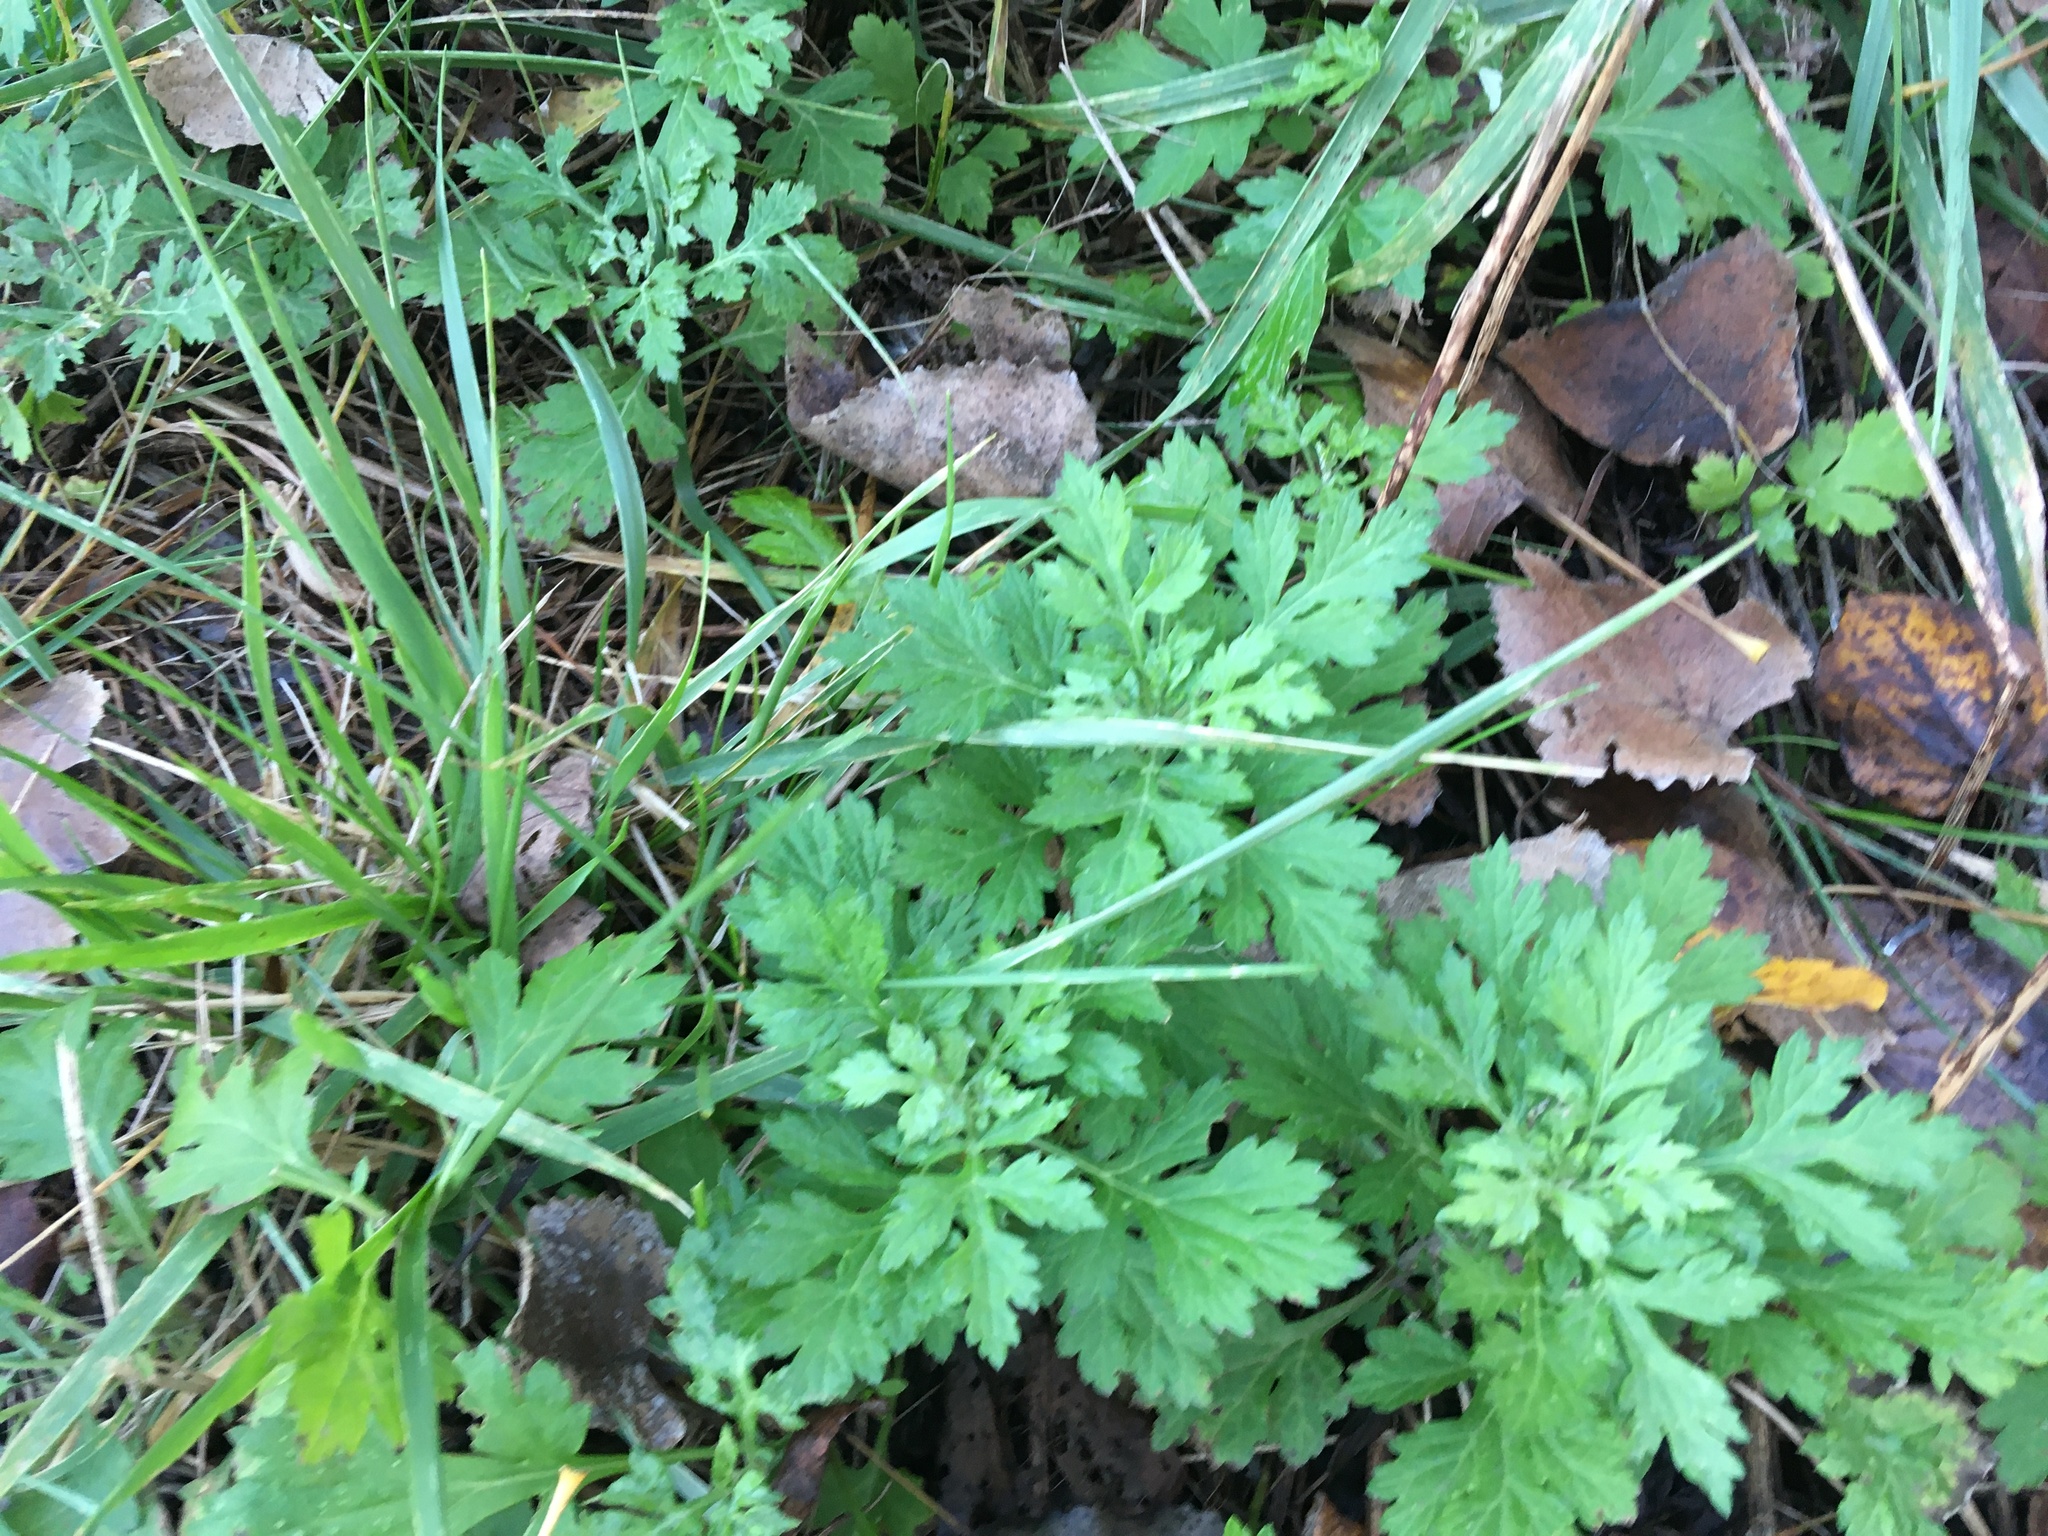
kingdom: Plantae
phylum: Tracheophyta
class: Magnoliopsida
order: Asterales
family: Asteraceae
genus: Artemisia
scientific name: Artemisia vulgaris
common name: Mugwort
